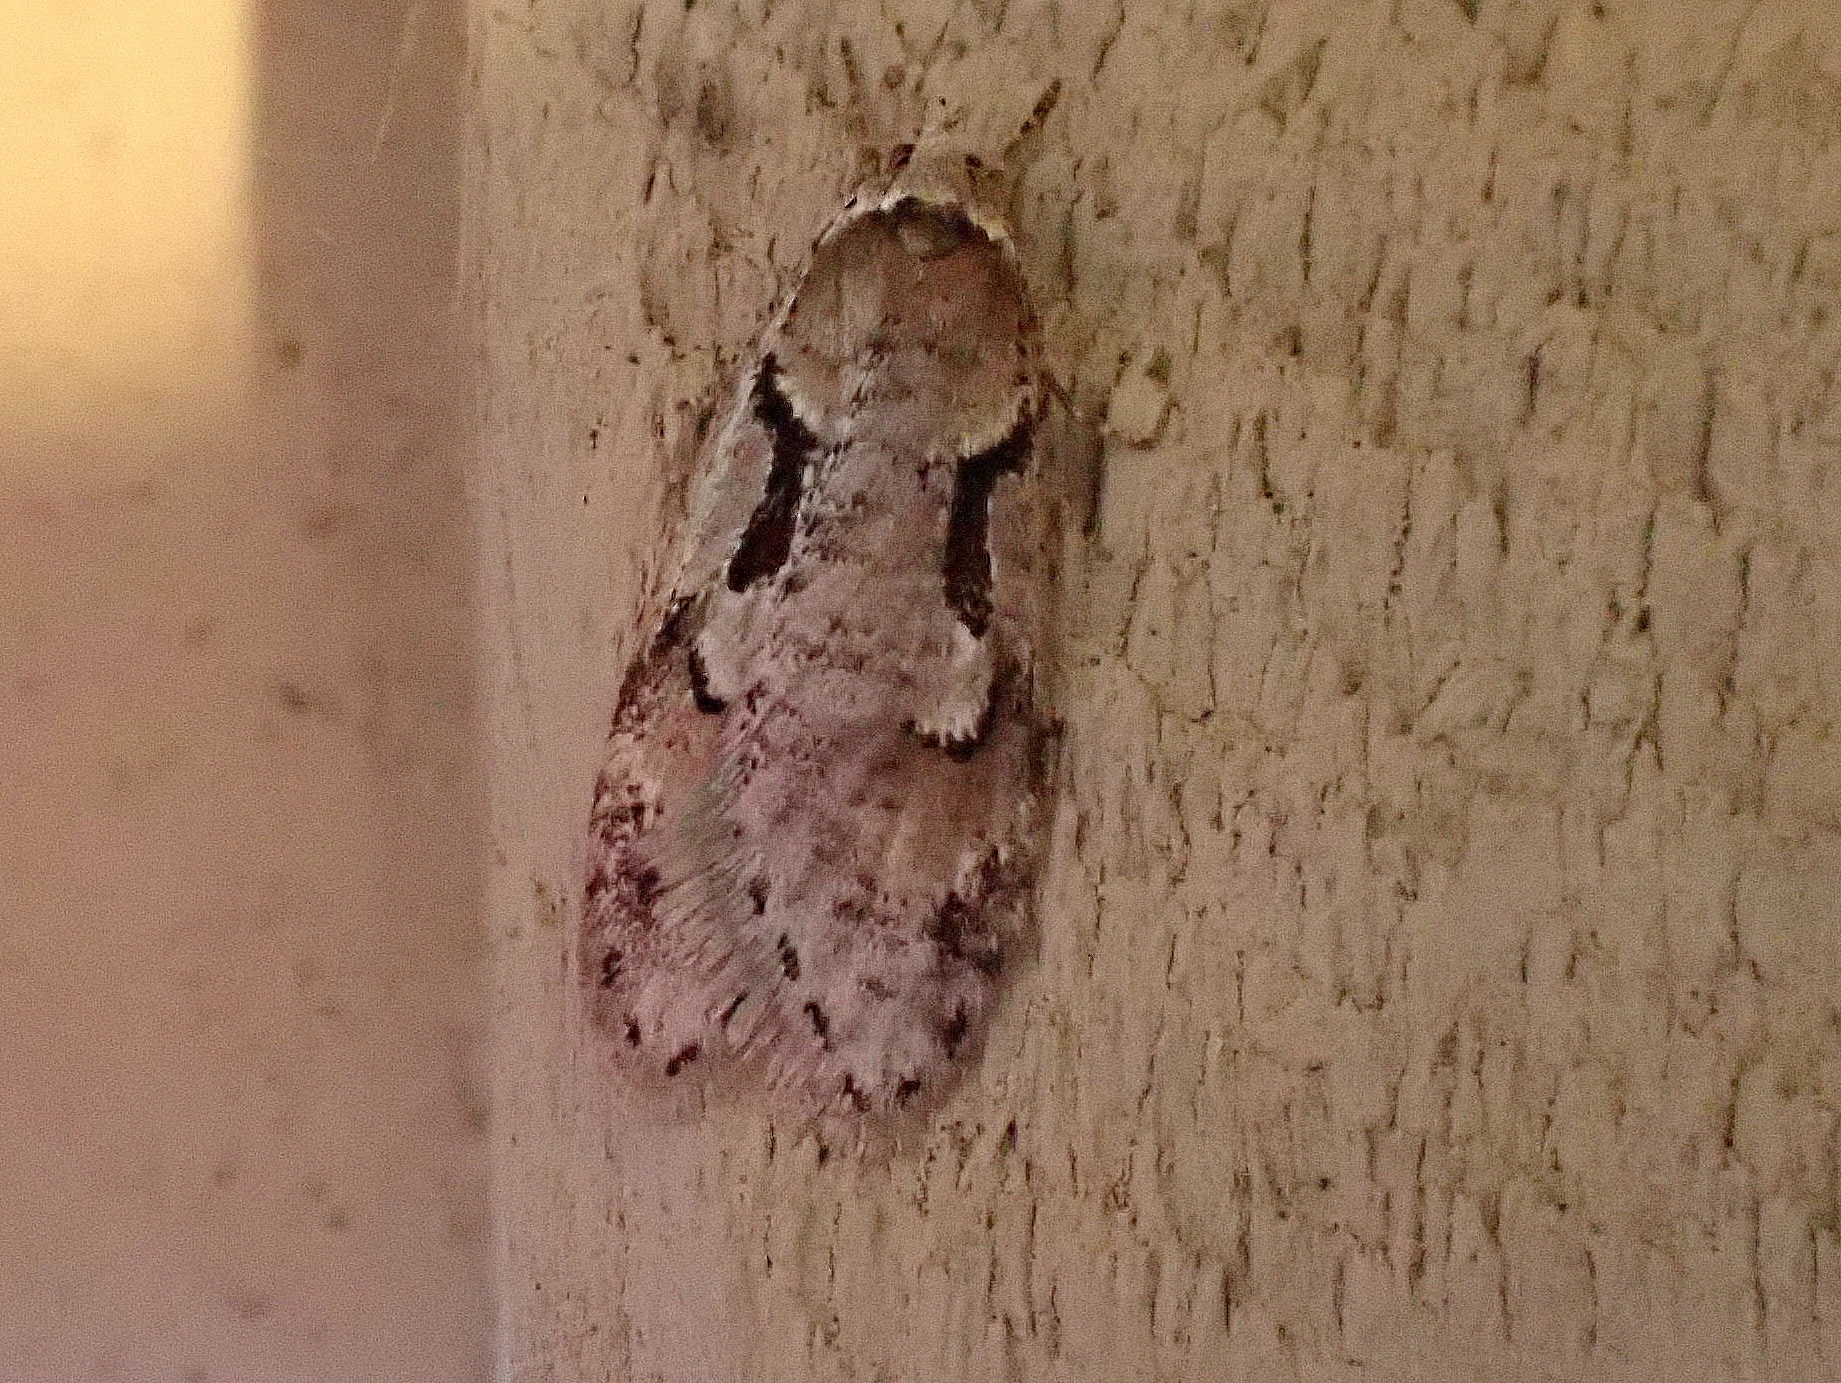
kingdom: Animalia
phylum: Arthropoda
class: Insecta
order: Lepidoptera
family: Depressariidae
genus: Semioscopis
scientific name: Semioscopis merriccella
